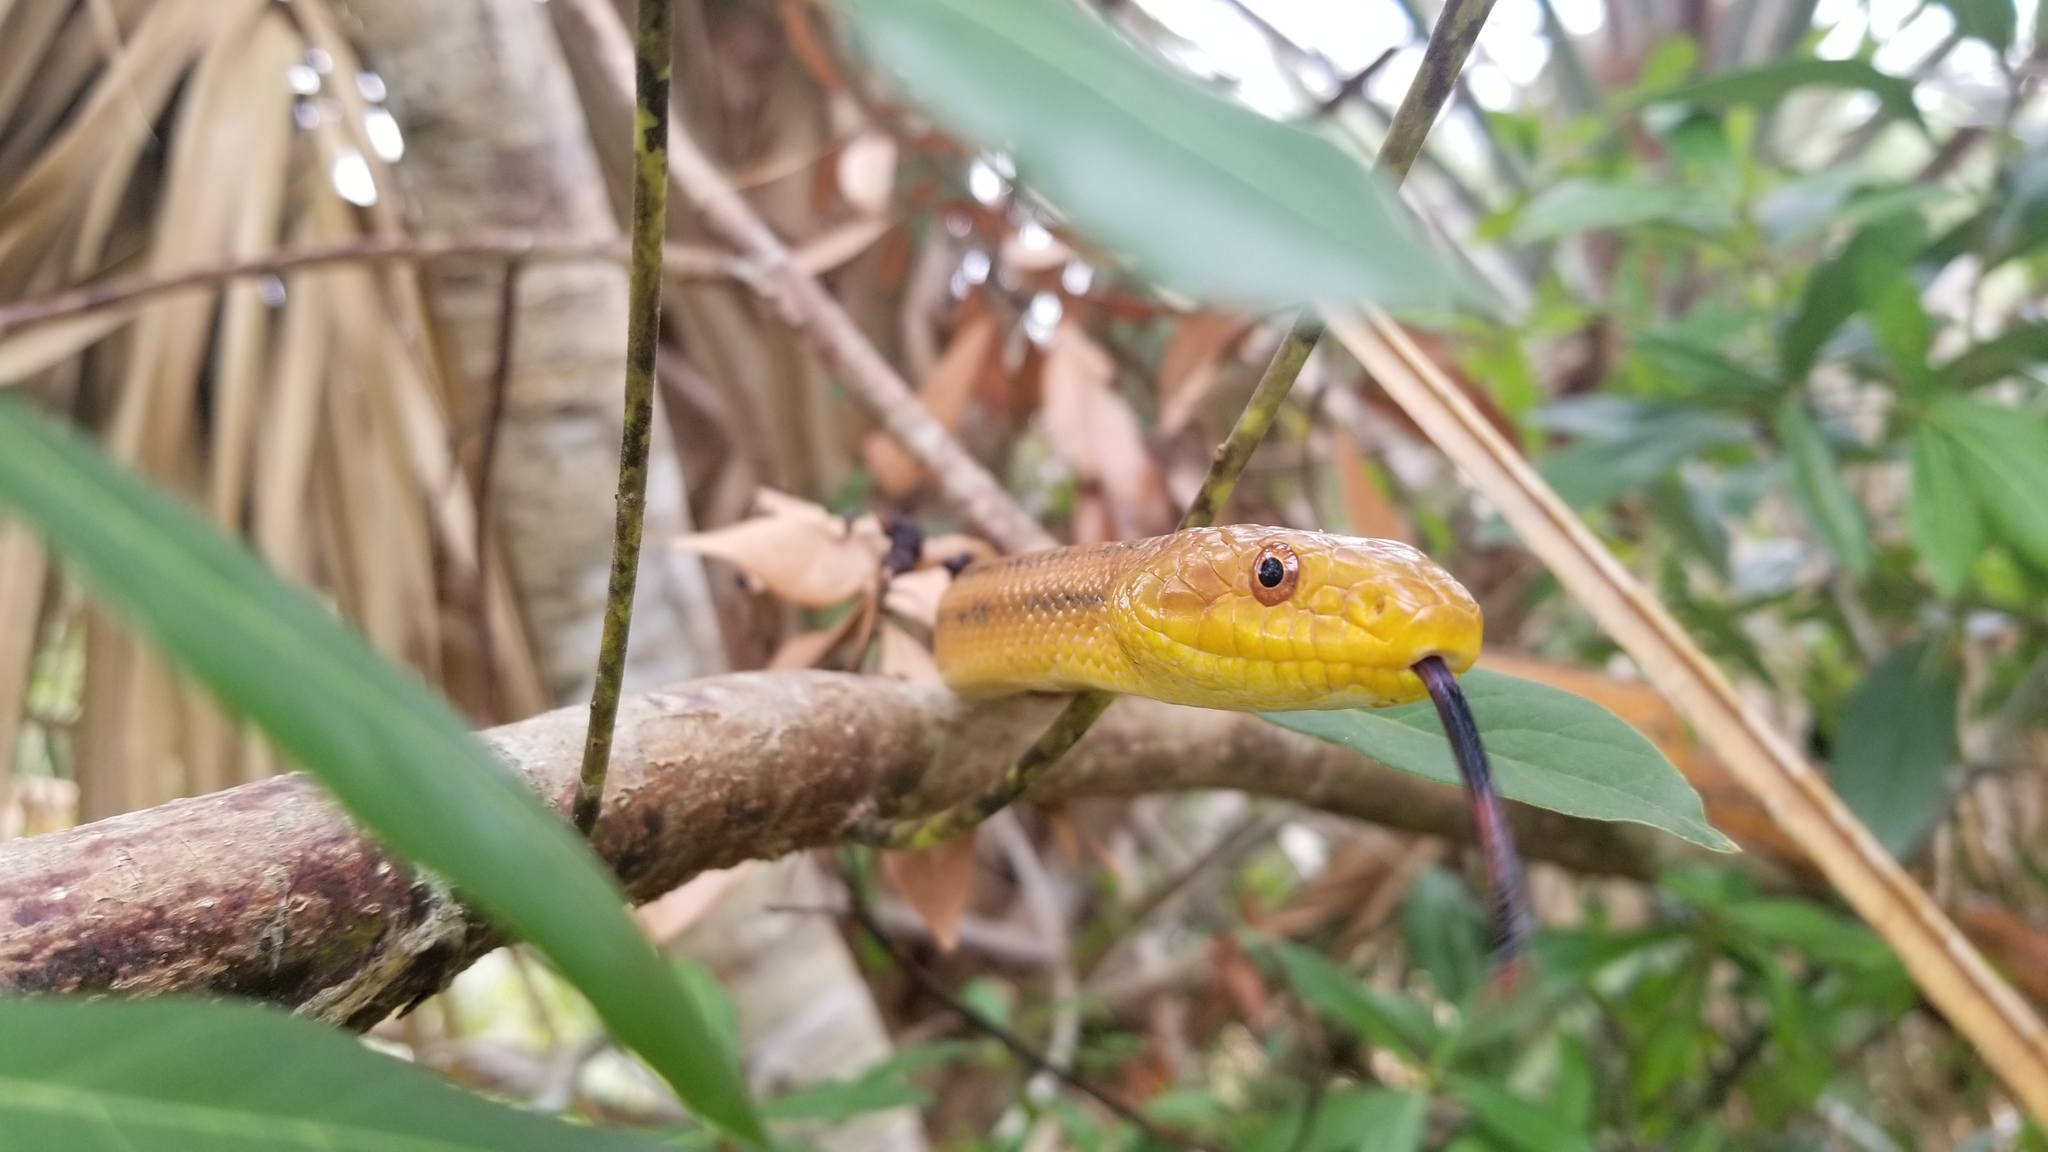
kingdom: Animalia
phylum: Chordata
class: Squamata
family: Colubridae
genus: Pantherophis
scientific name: Pantherophis alleghaniensis
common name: Eastern rat snake
